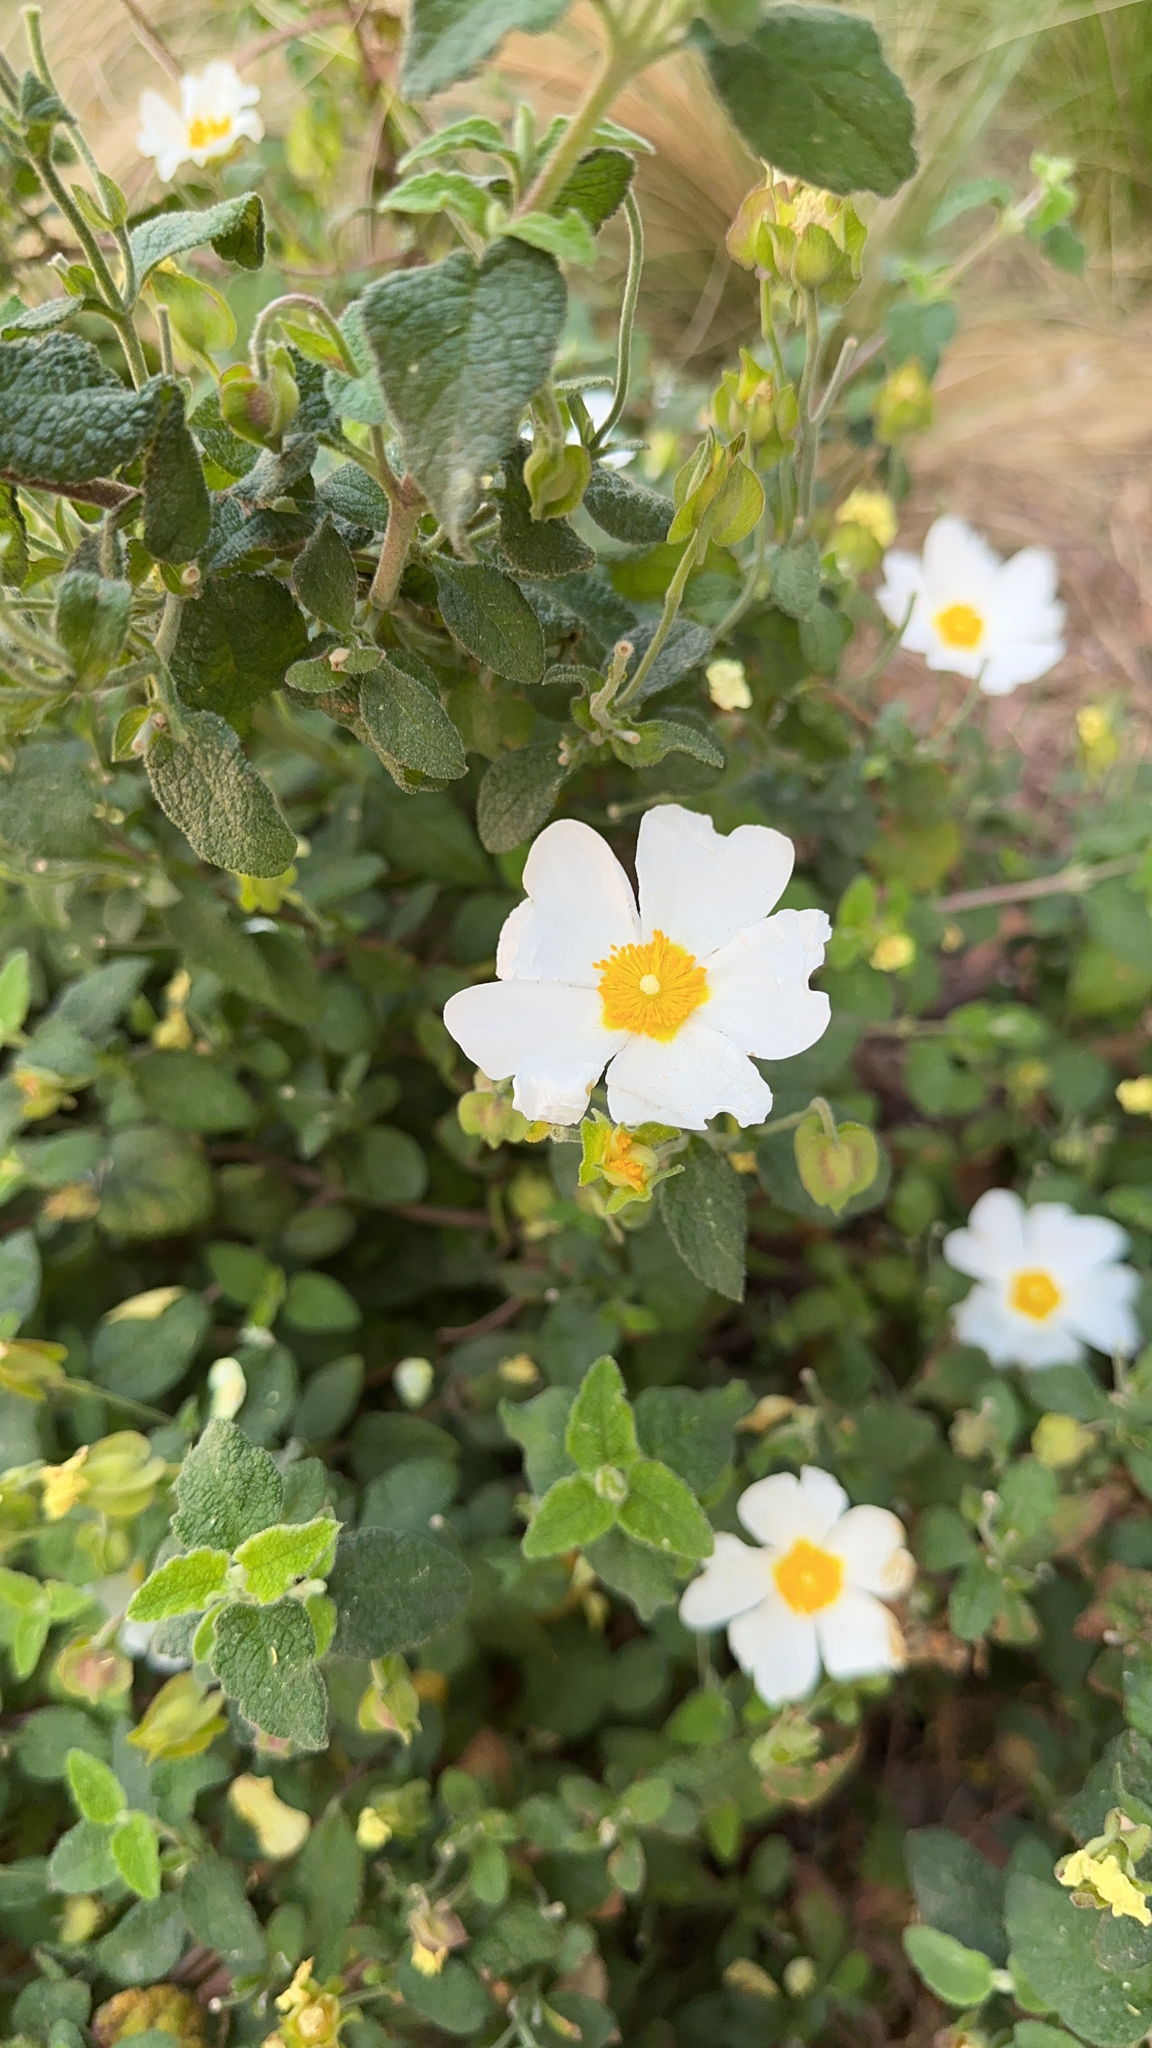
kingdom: Plantae
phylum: Tracheophyta
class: Magnoliopsida
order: Malvales
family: Cistaceae
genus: Cistus
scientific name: Cistus salviifolius
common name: Salvia cistus
